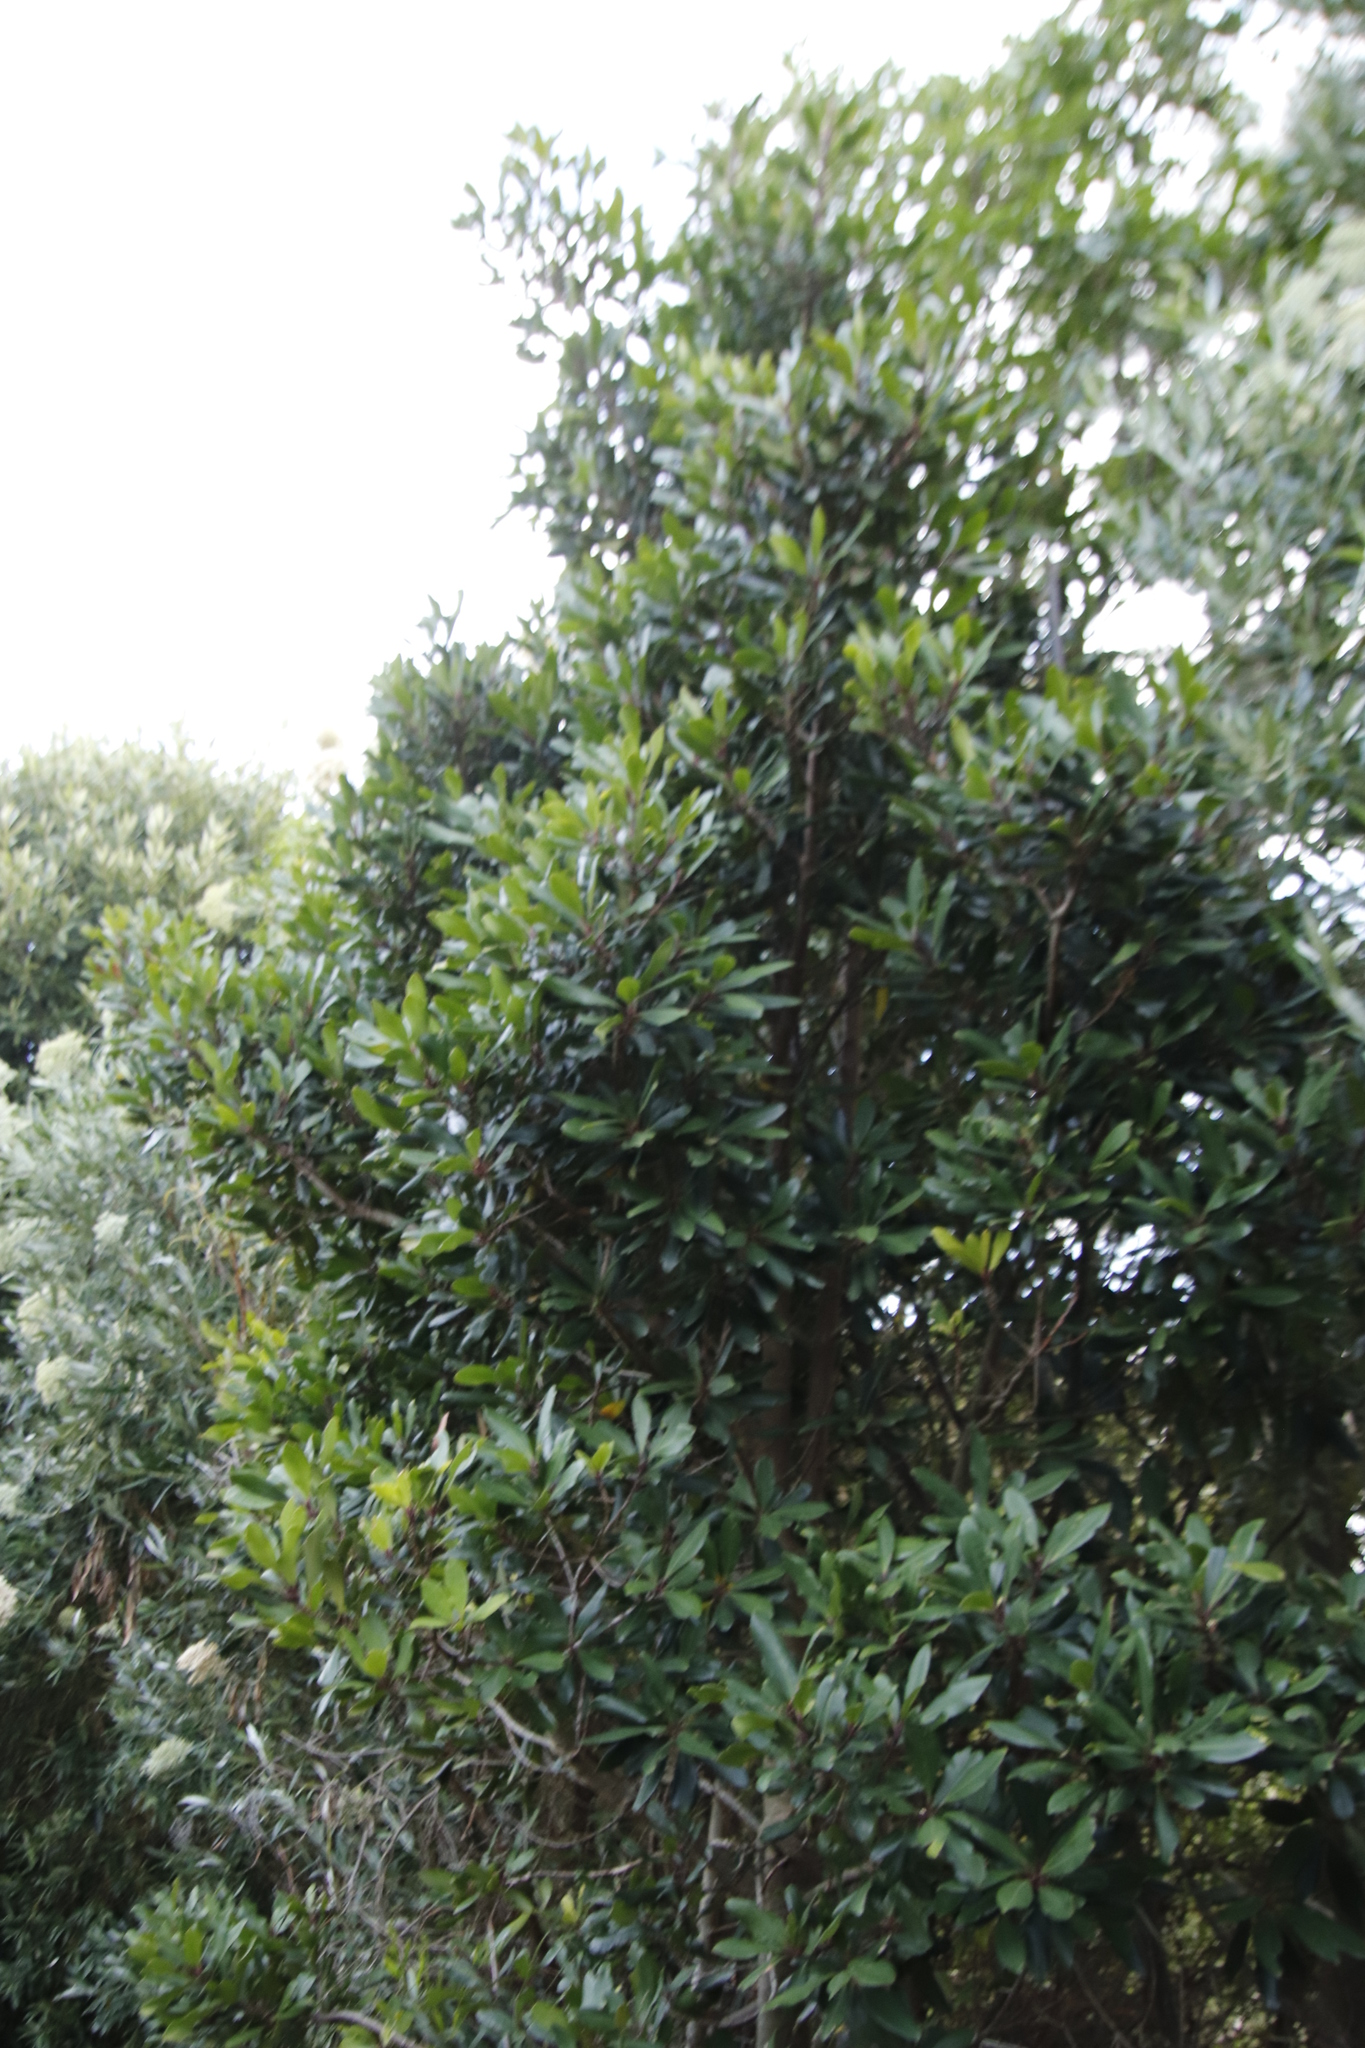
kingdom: Plantae
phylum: Tracheophyta
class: Magnoliopsida
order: Ericales
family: Primulaceae
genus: Myrsine
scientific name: Myrsine melanophloeos
